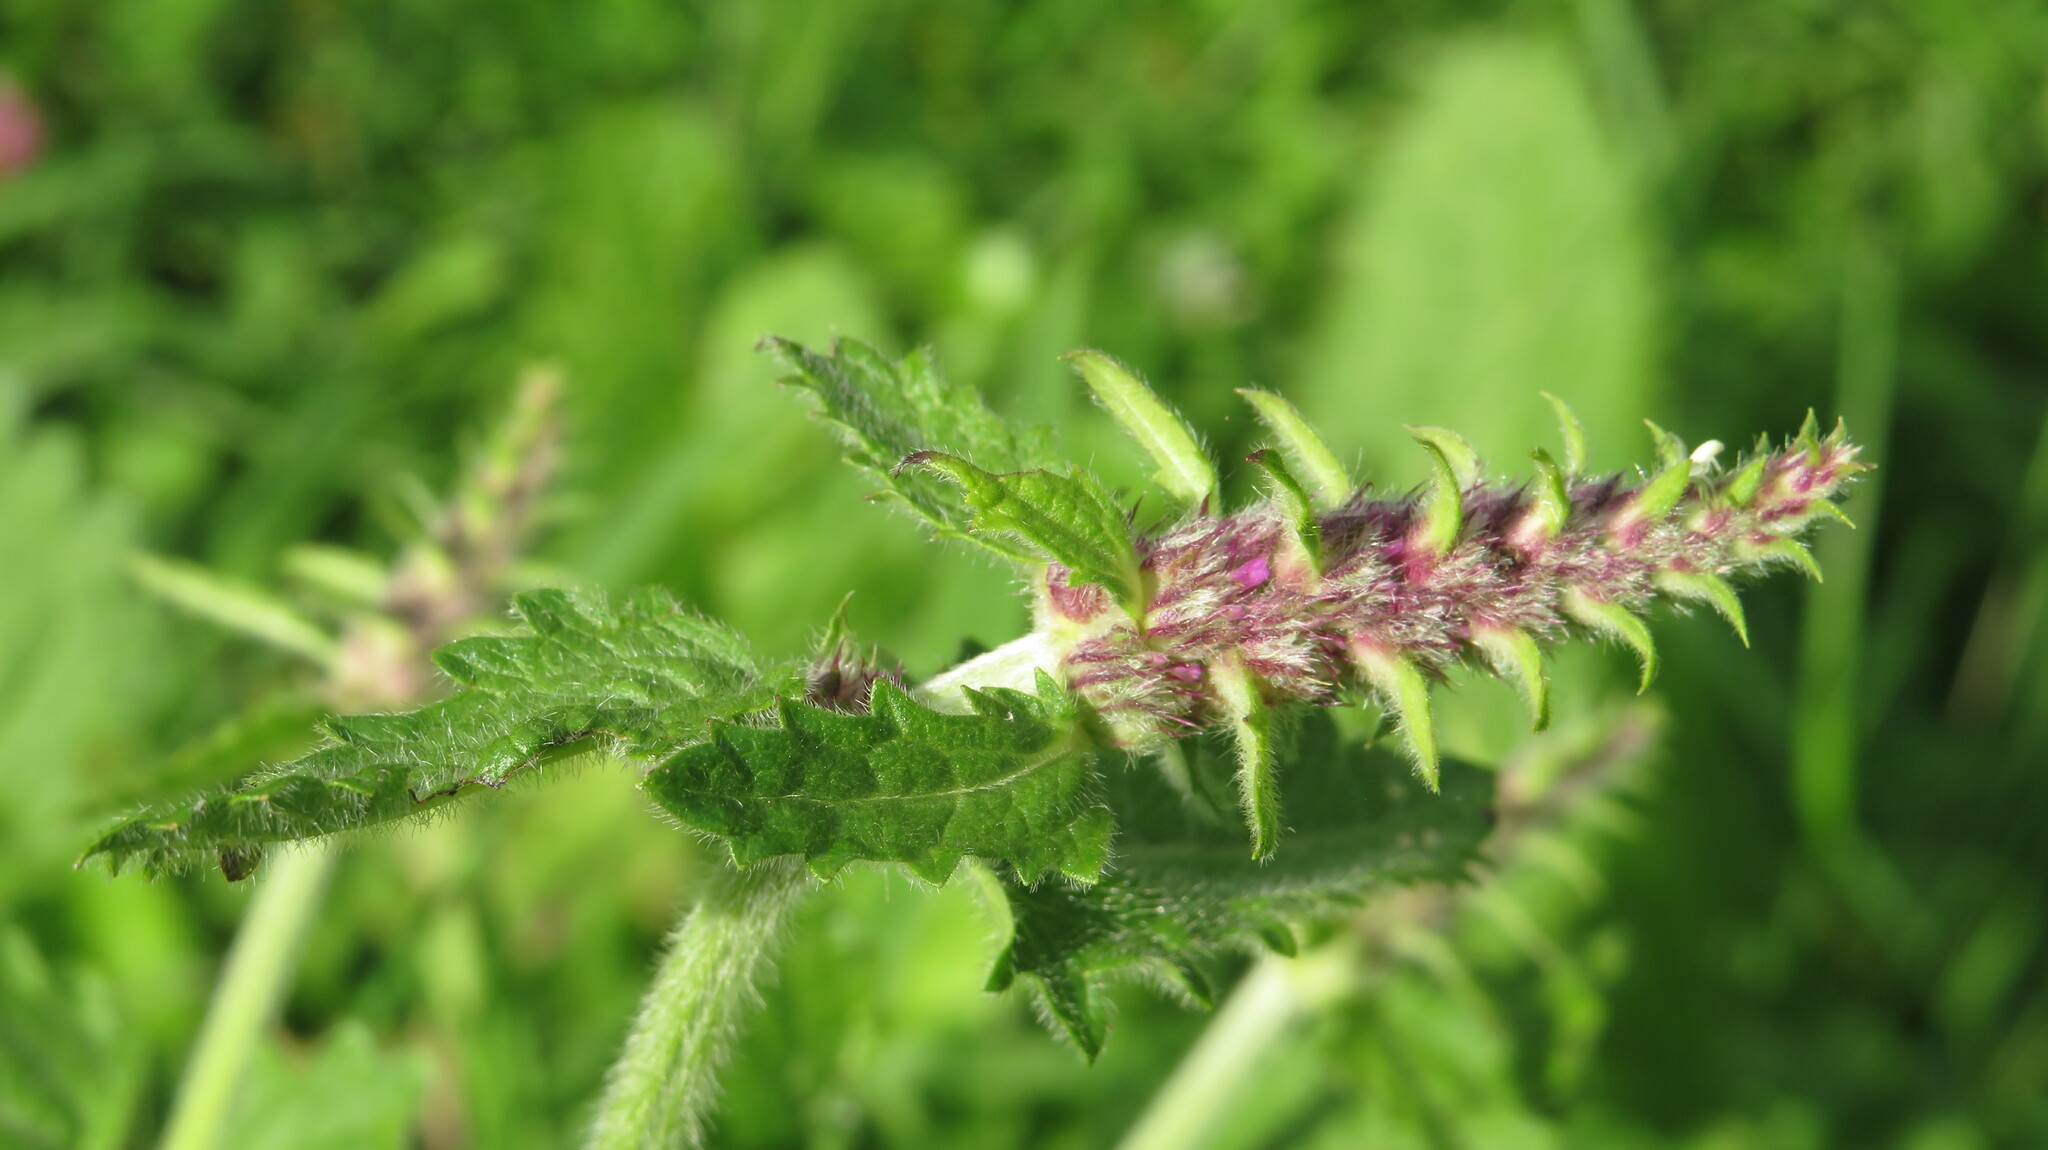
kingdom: Plantae
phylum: Tracheophyta
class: Magnoliopsida
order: Lamiales
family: Lamiaceae
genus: Betonica
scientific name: Betonica officinalis
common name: Bishop's-wort
